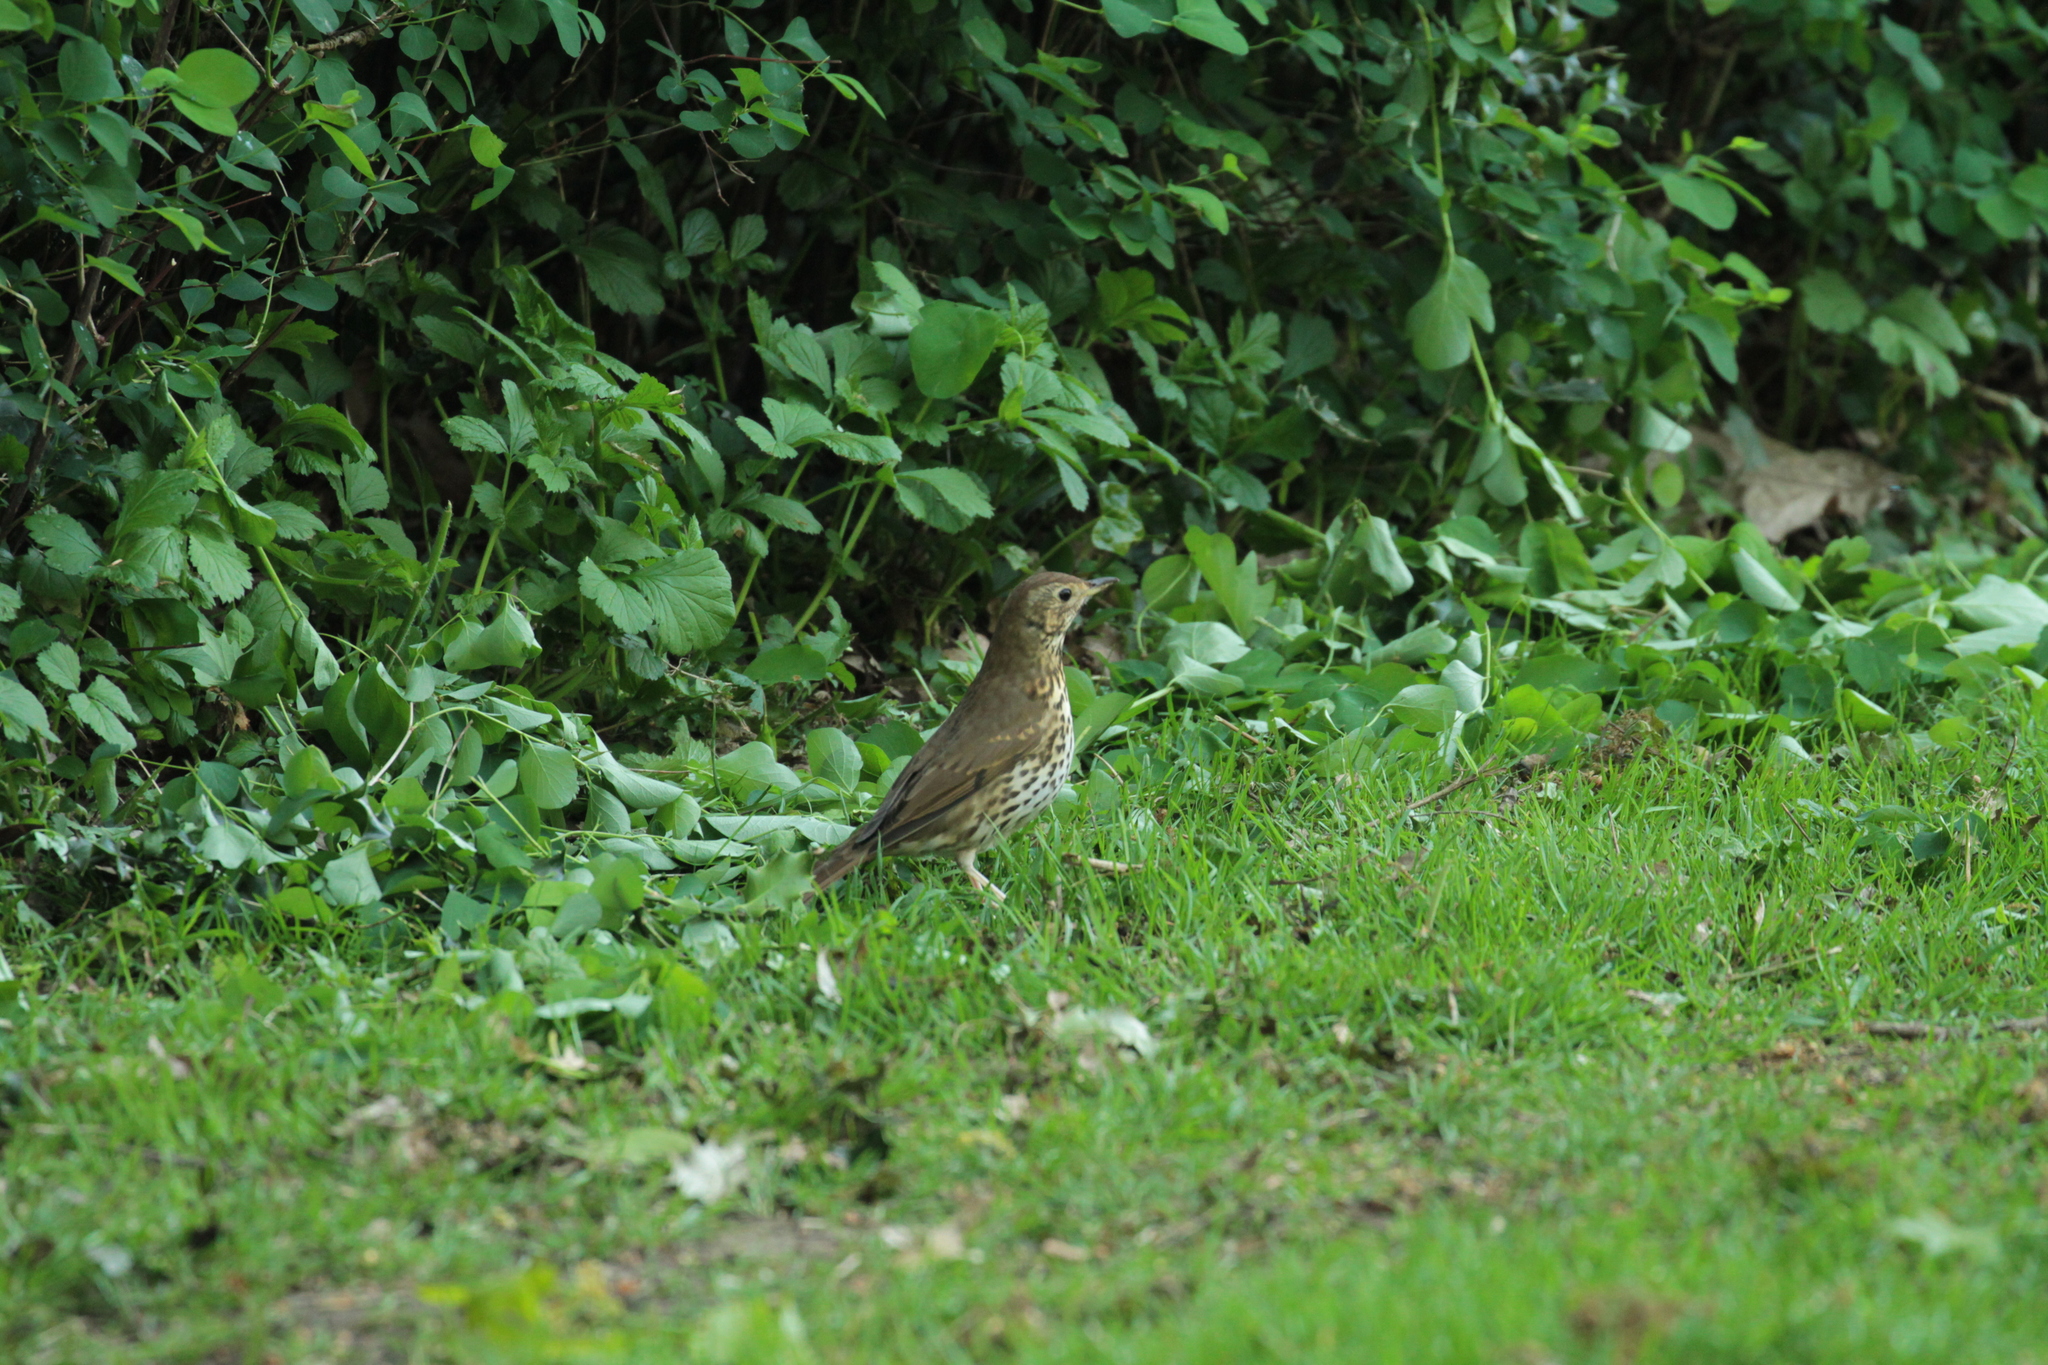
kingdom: Animalia
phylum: Chordata
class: Aves
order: Passeriformes
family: Turdidae
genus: Turdus
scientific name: Turdus philomelos
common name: Song thrush
